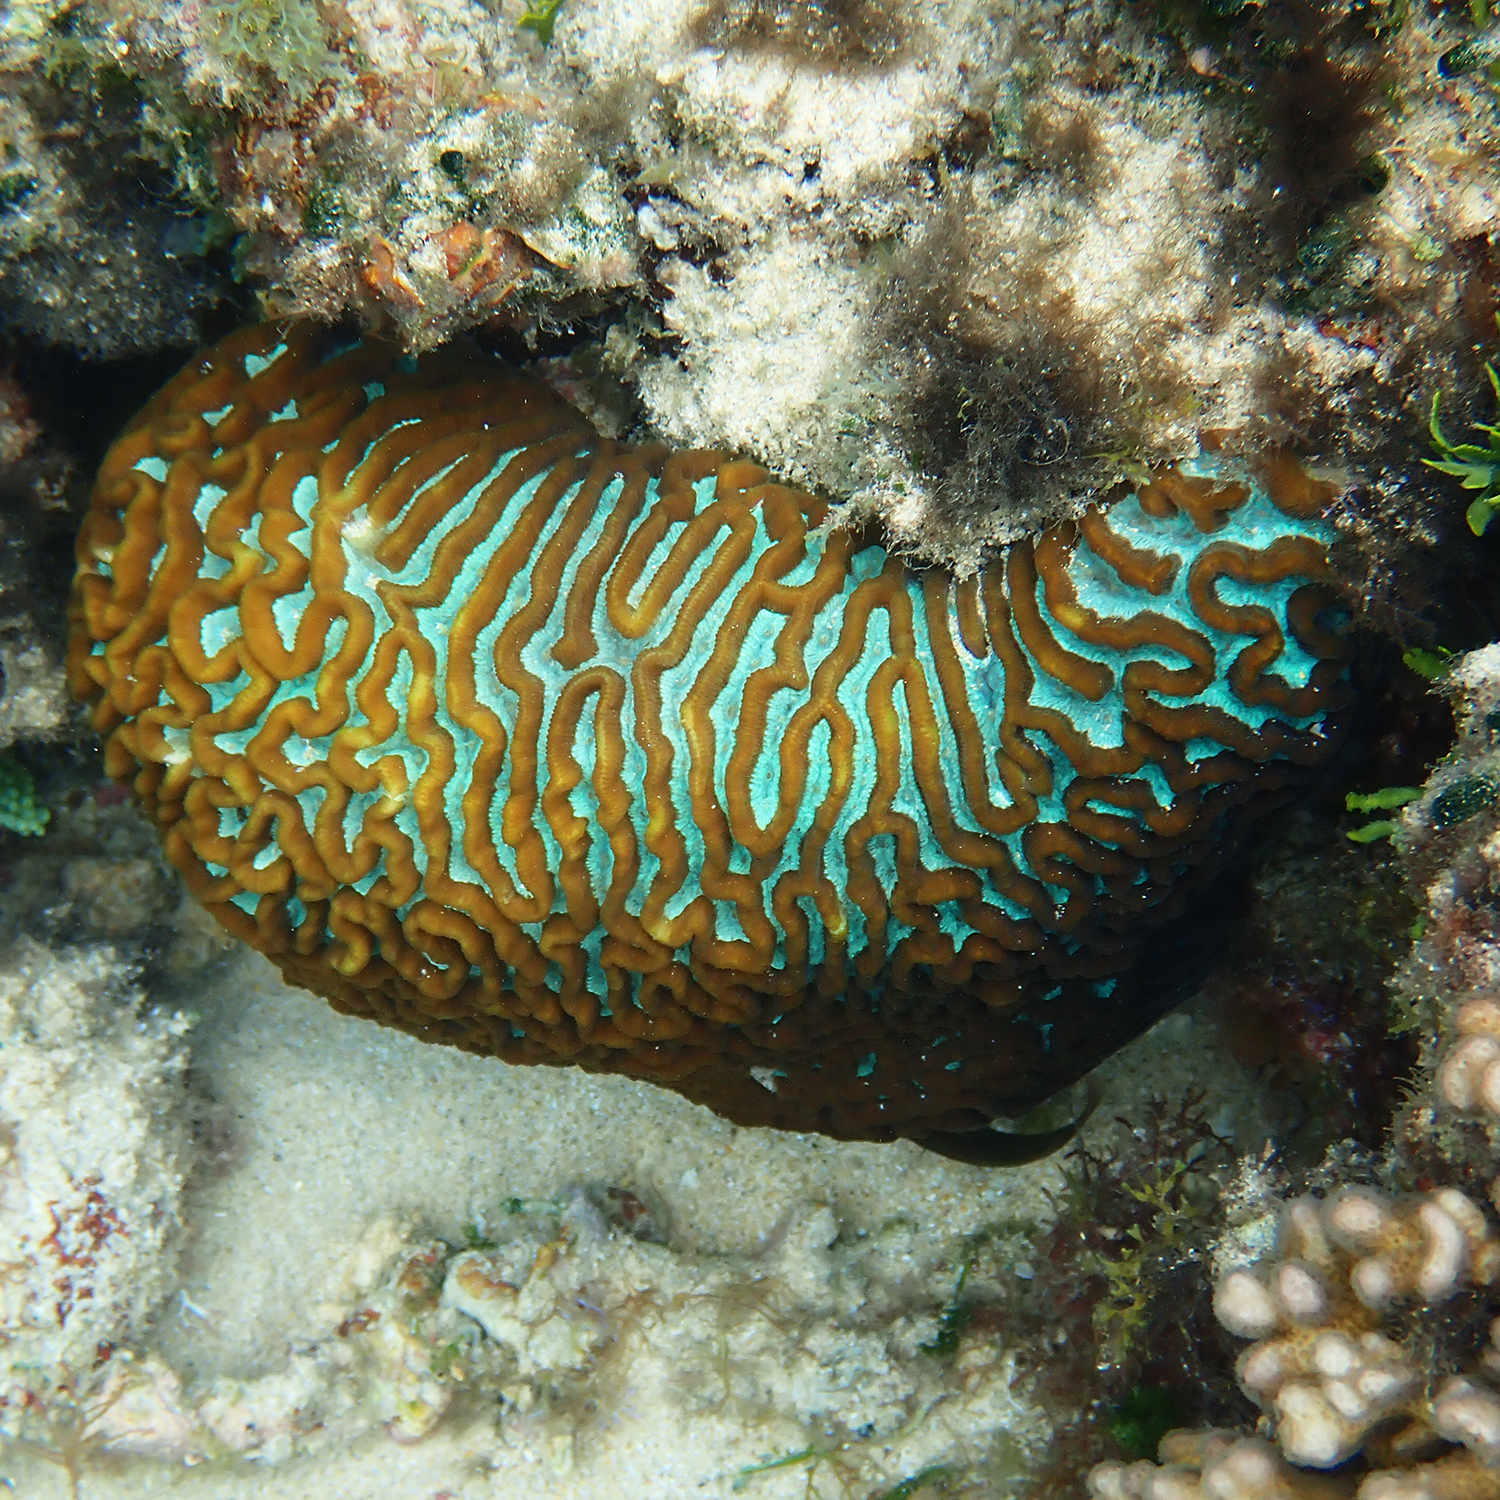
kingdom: Animalia
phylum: Cnidaria
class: Anthozoa
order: Scleractinia
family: Merulinidae
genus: Paragoniastrea
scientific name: Paragoniastrea australensis
